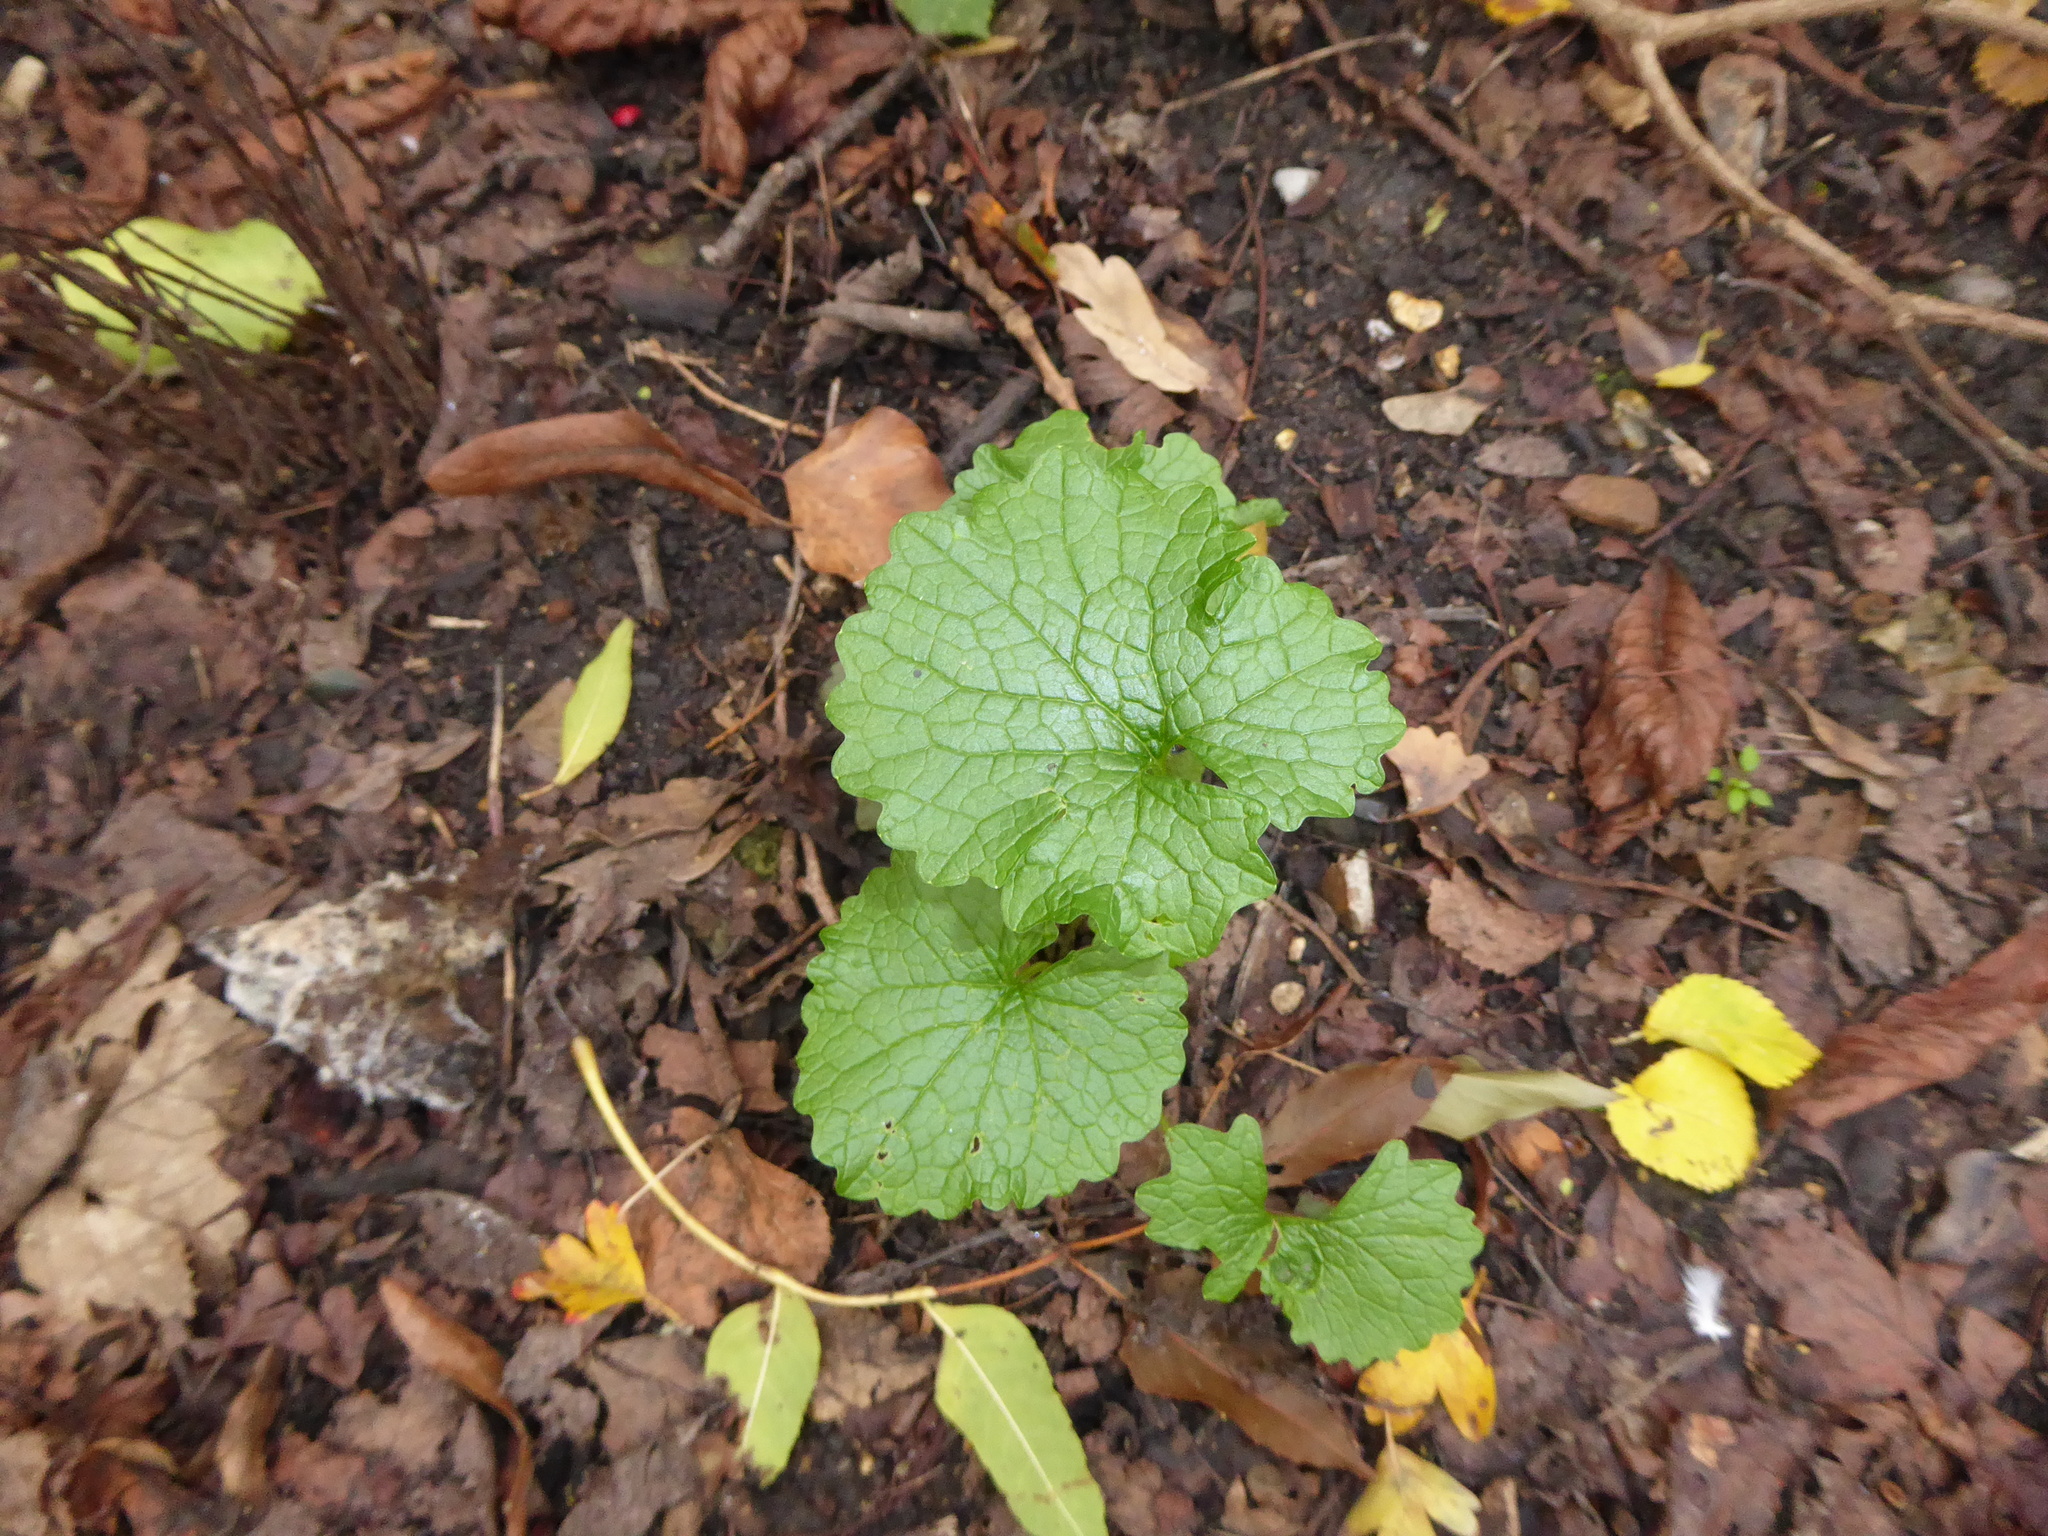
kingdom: Plantae
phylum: Tracheophyta
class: Magnoliopsida
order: Brassicales
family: Brassicaceae
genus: Alliaria
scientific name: Alliaria petiolata
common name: Garlic mustard
